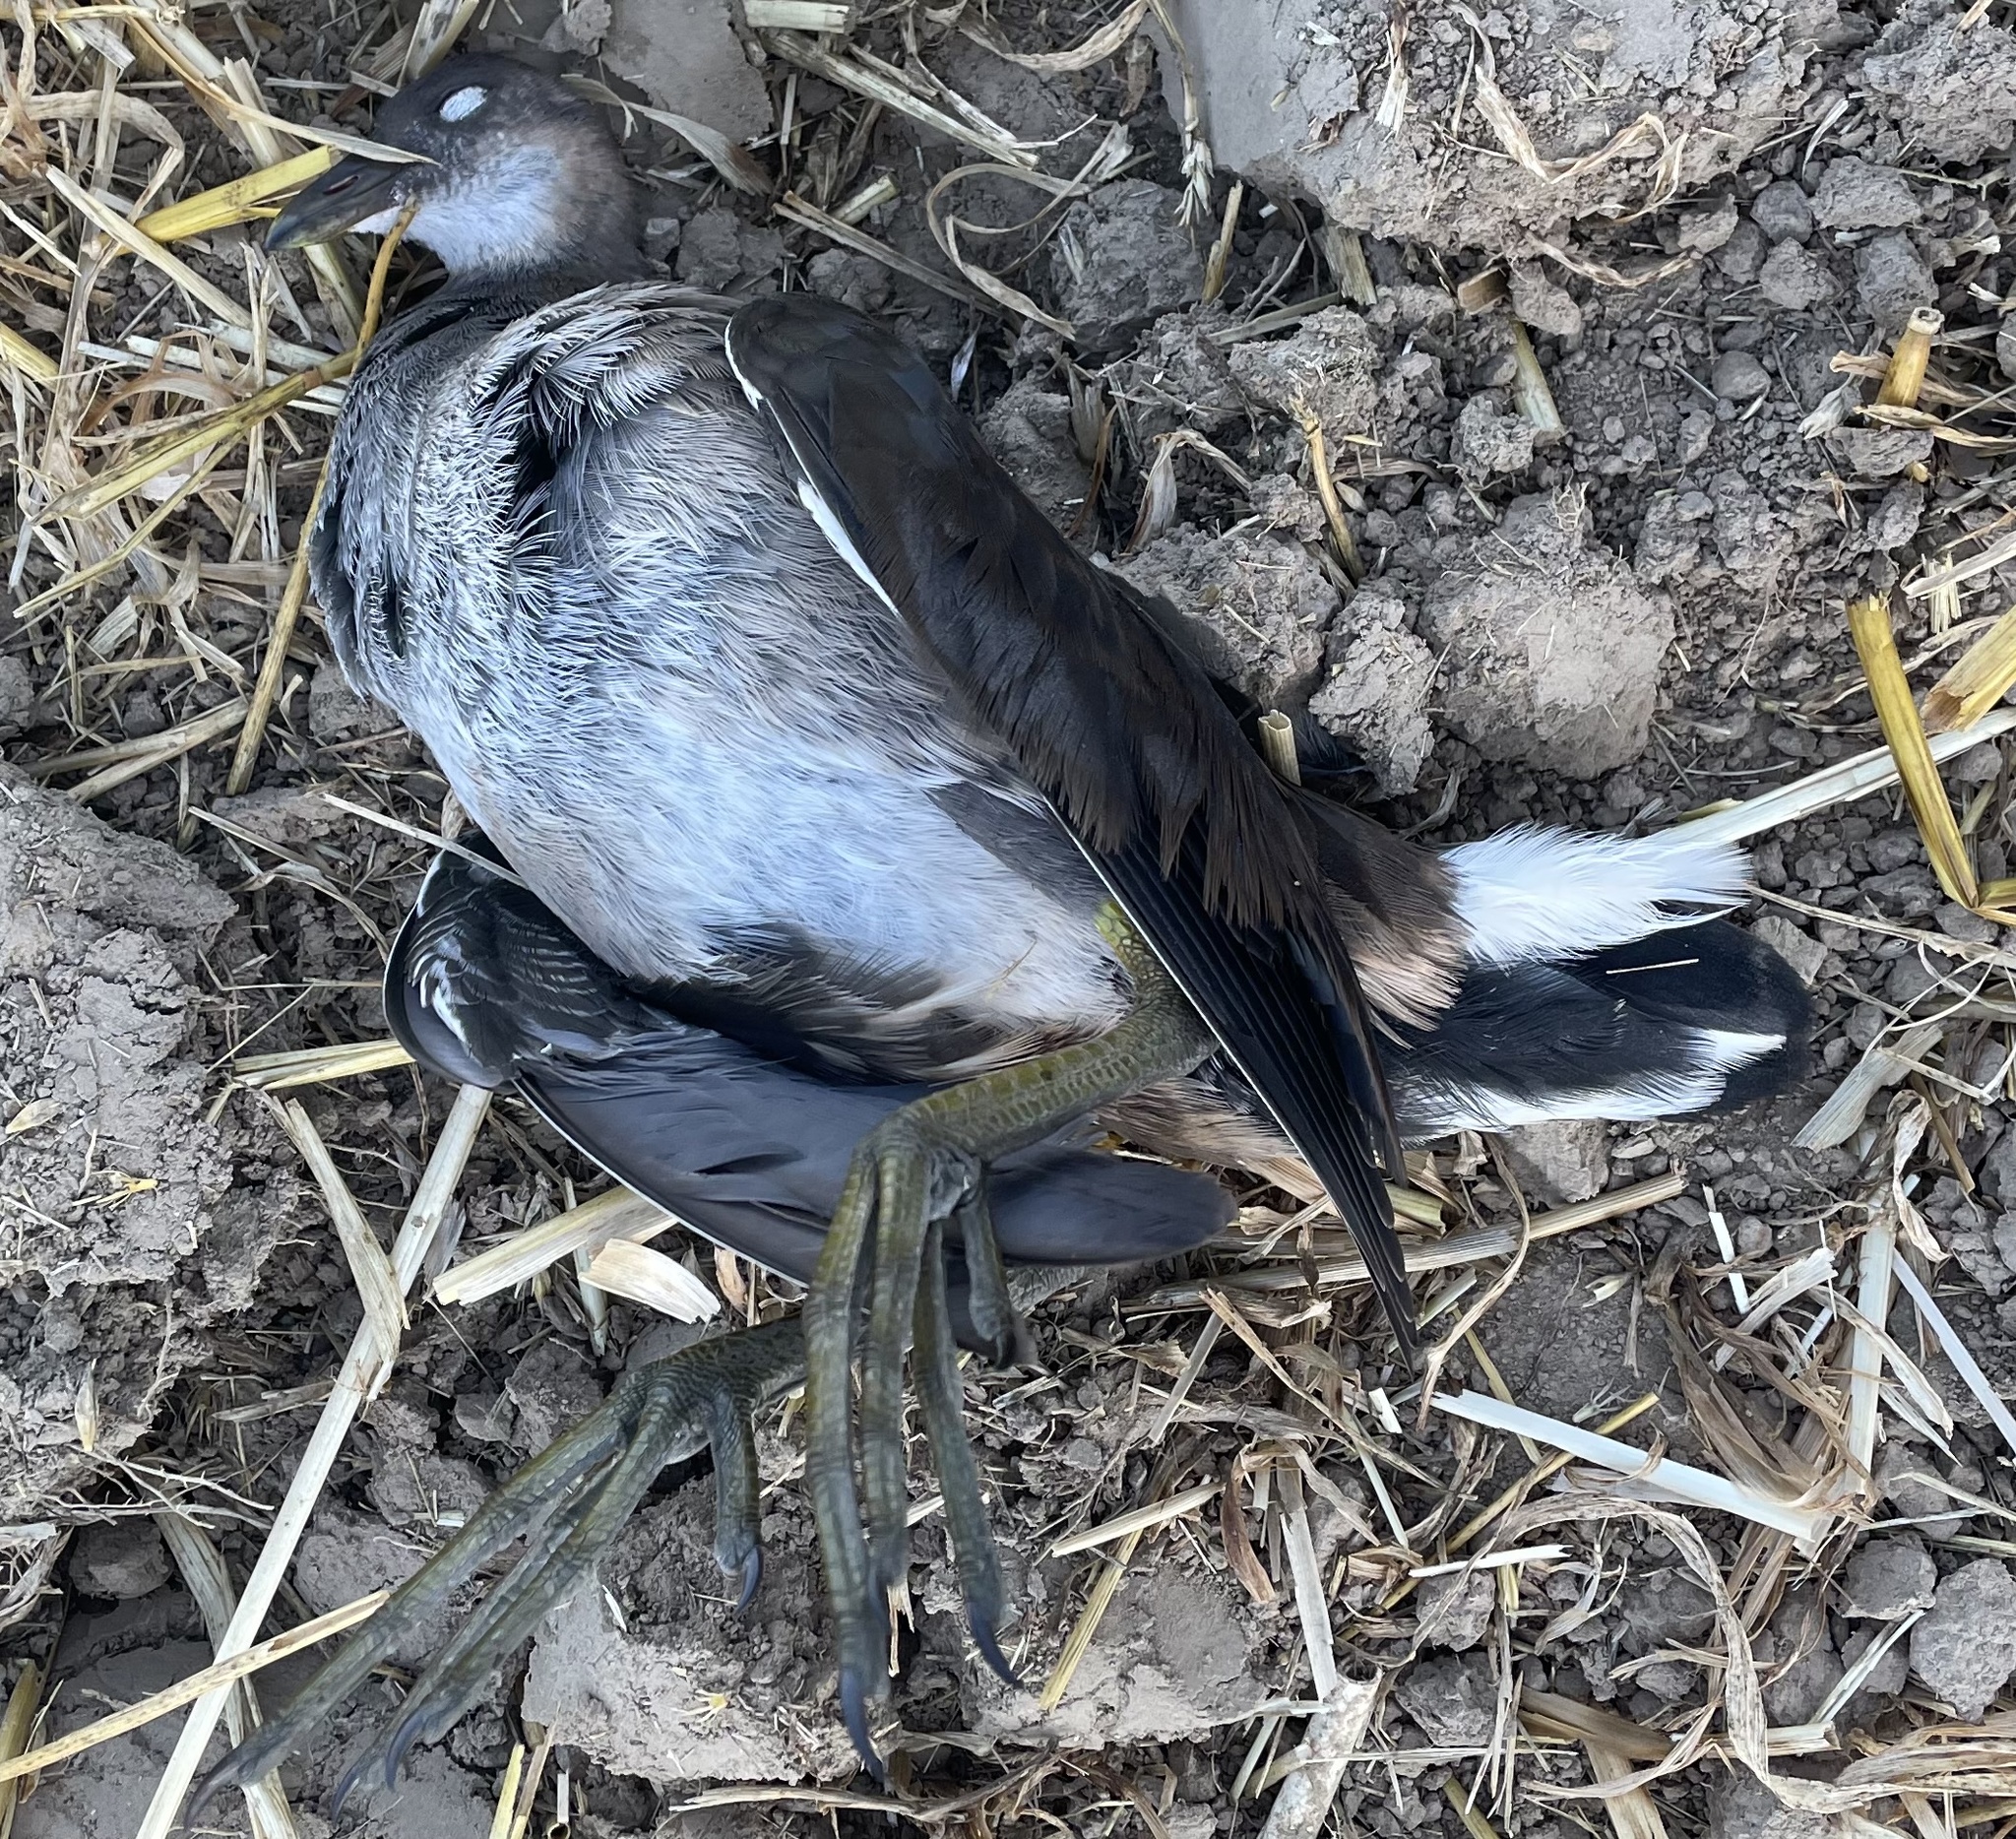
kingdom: Animalia
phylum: Chordata
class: Aves
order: Gruiformes
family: Rallidae
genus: Gallinula
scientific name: Gallinula chloropus
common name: Common moorhen
